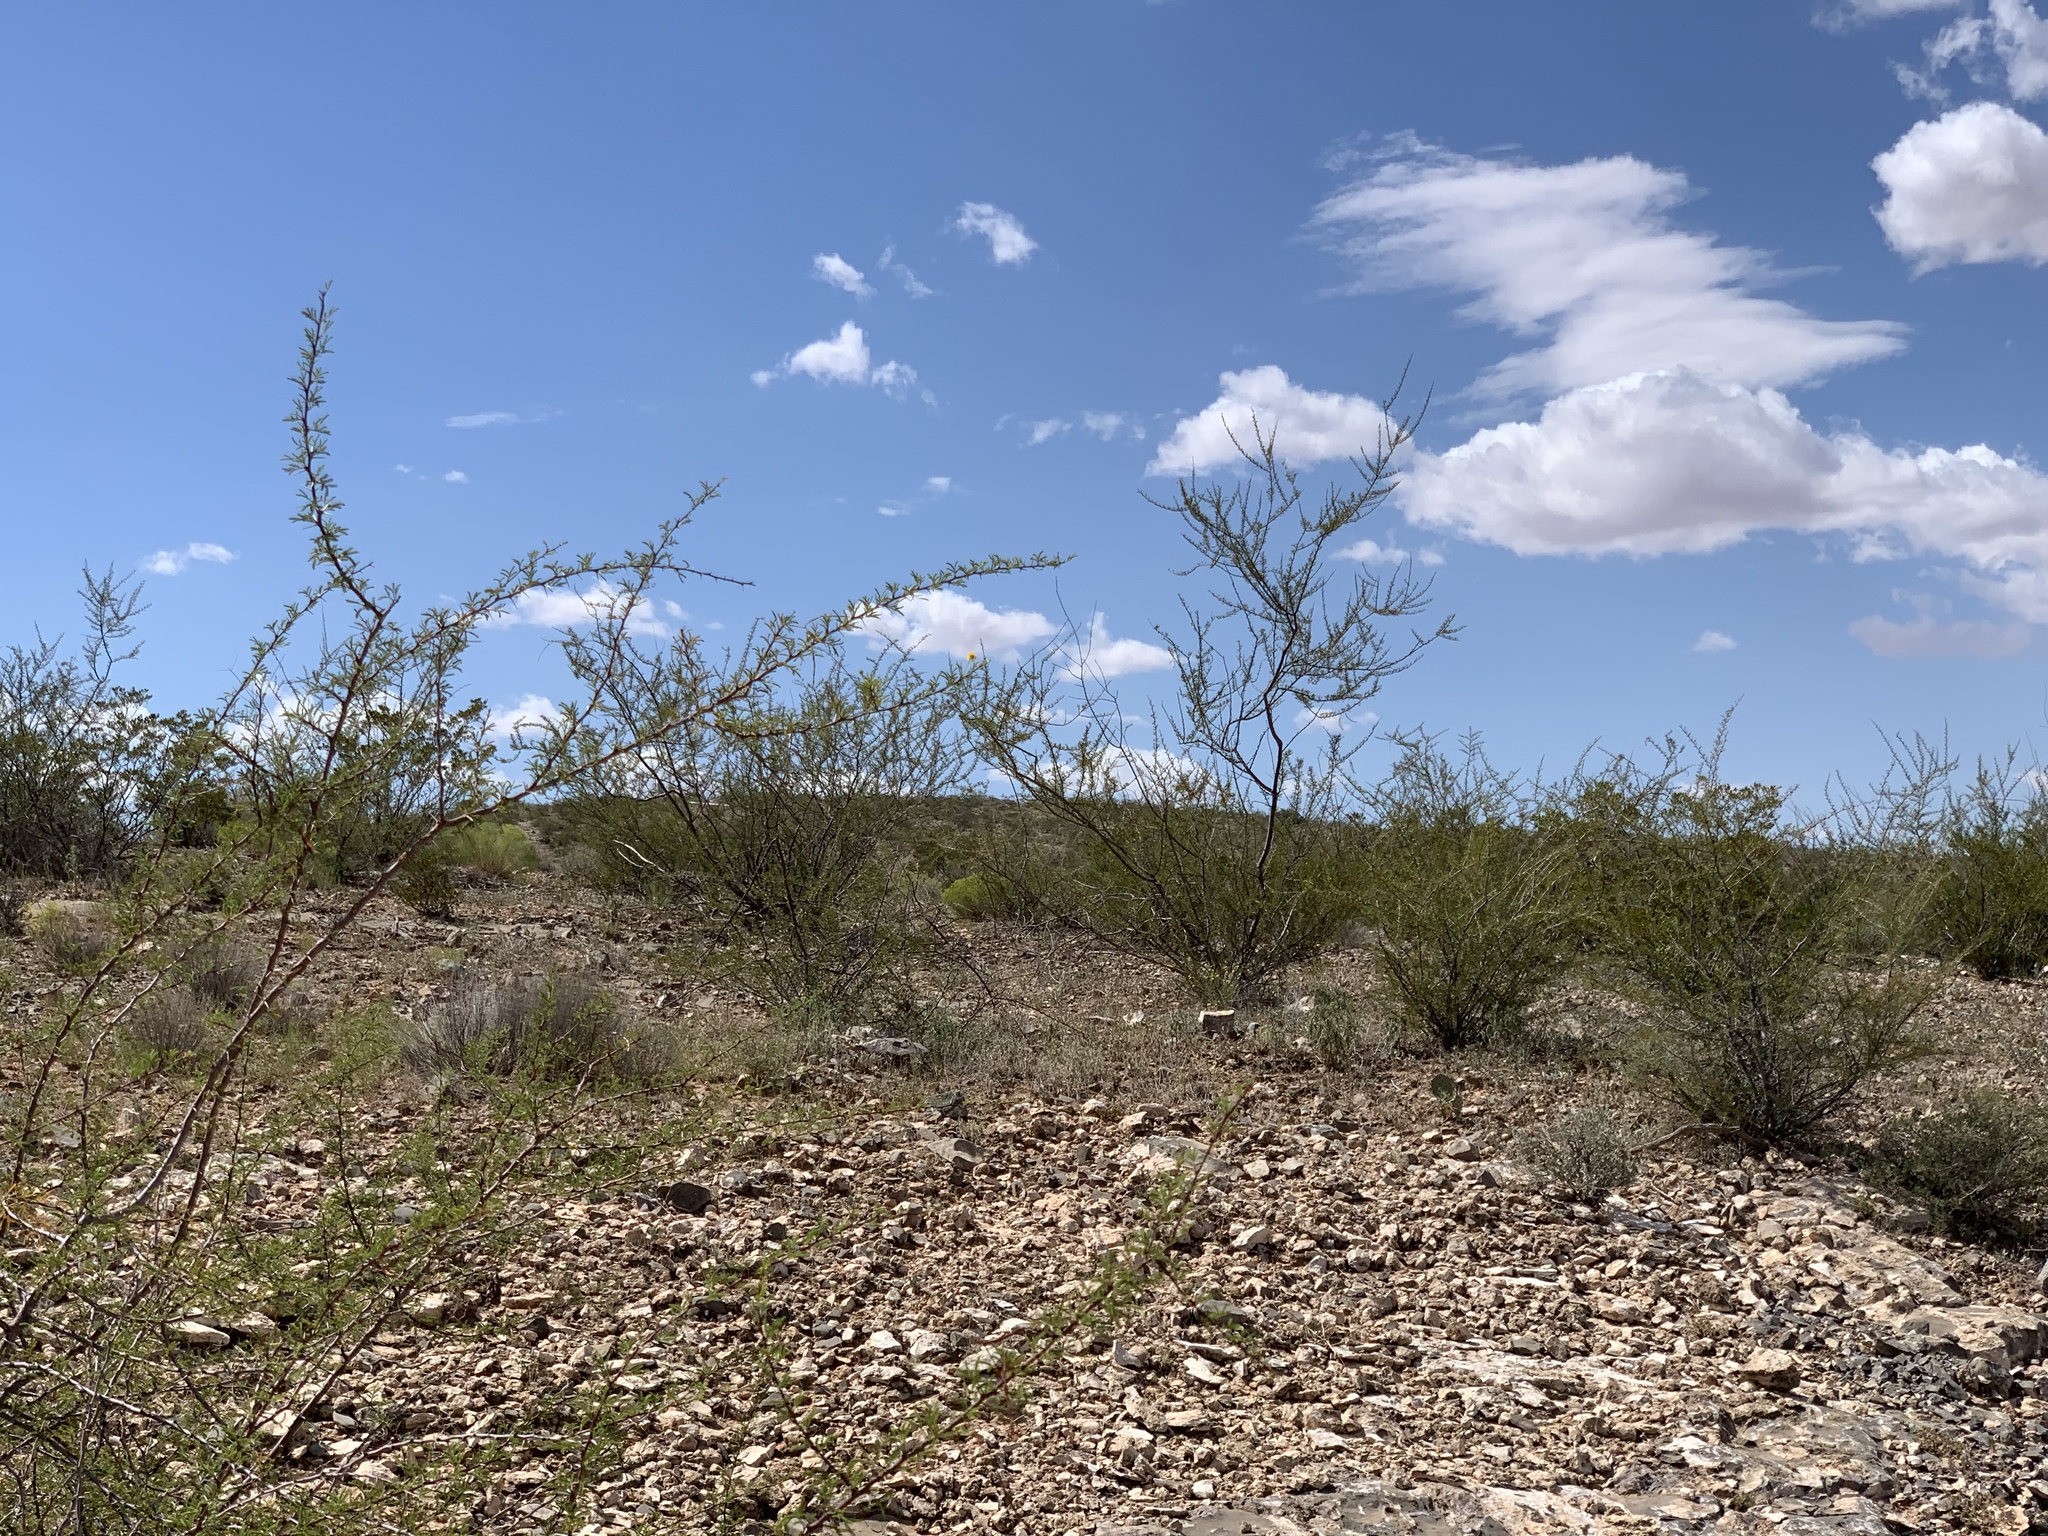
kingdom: Plantae
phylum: Tracheophyta
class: Magnoliopsida
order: Fabales
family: Fabaceae
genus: Vachellia
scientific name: Vachellia constricta
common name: Mescat acacia
